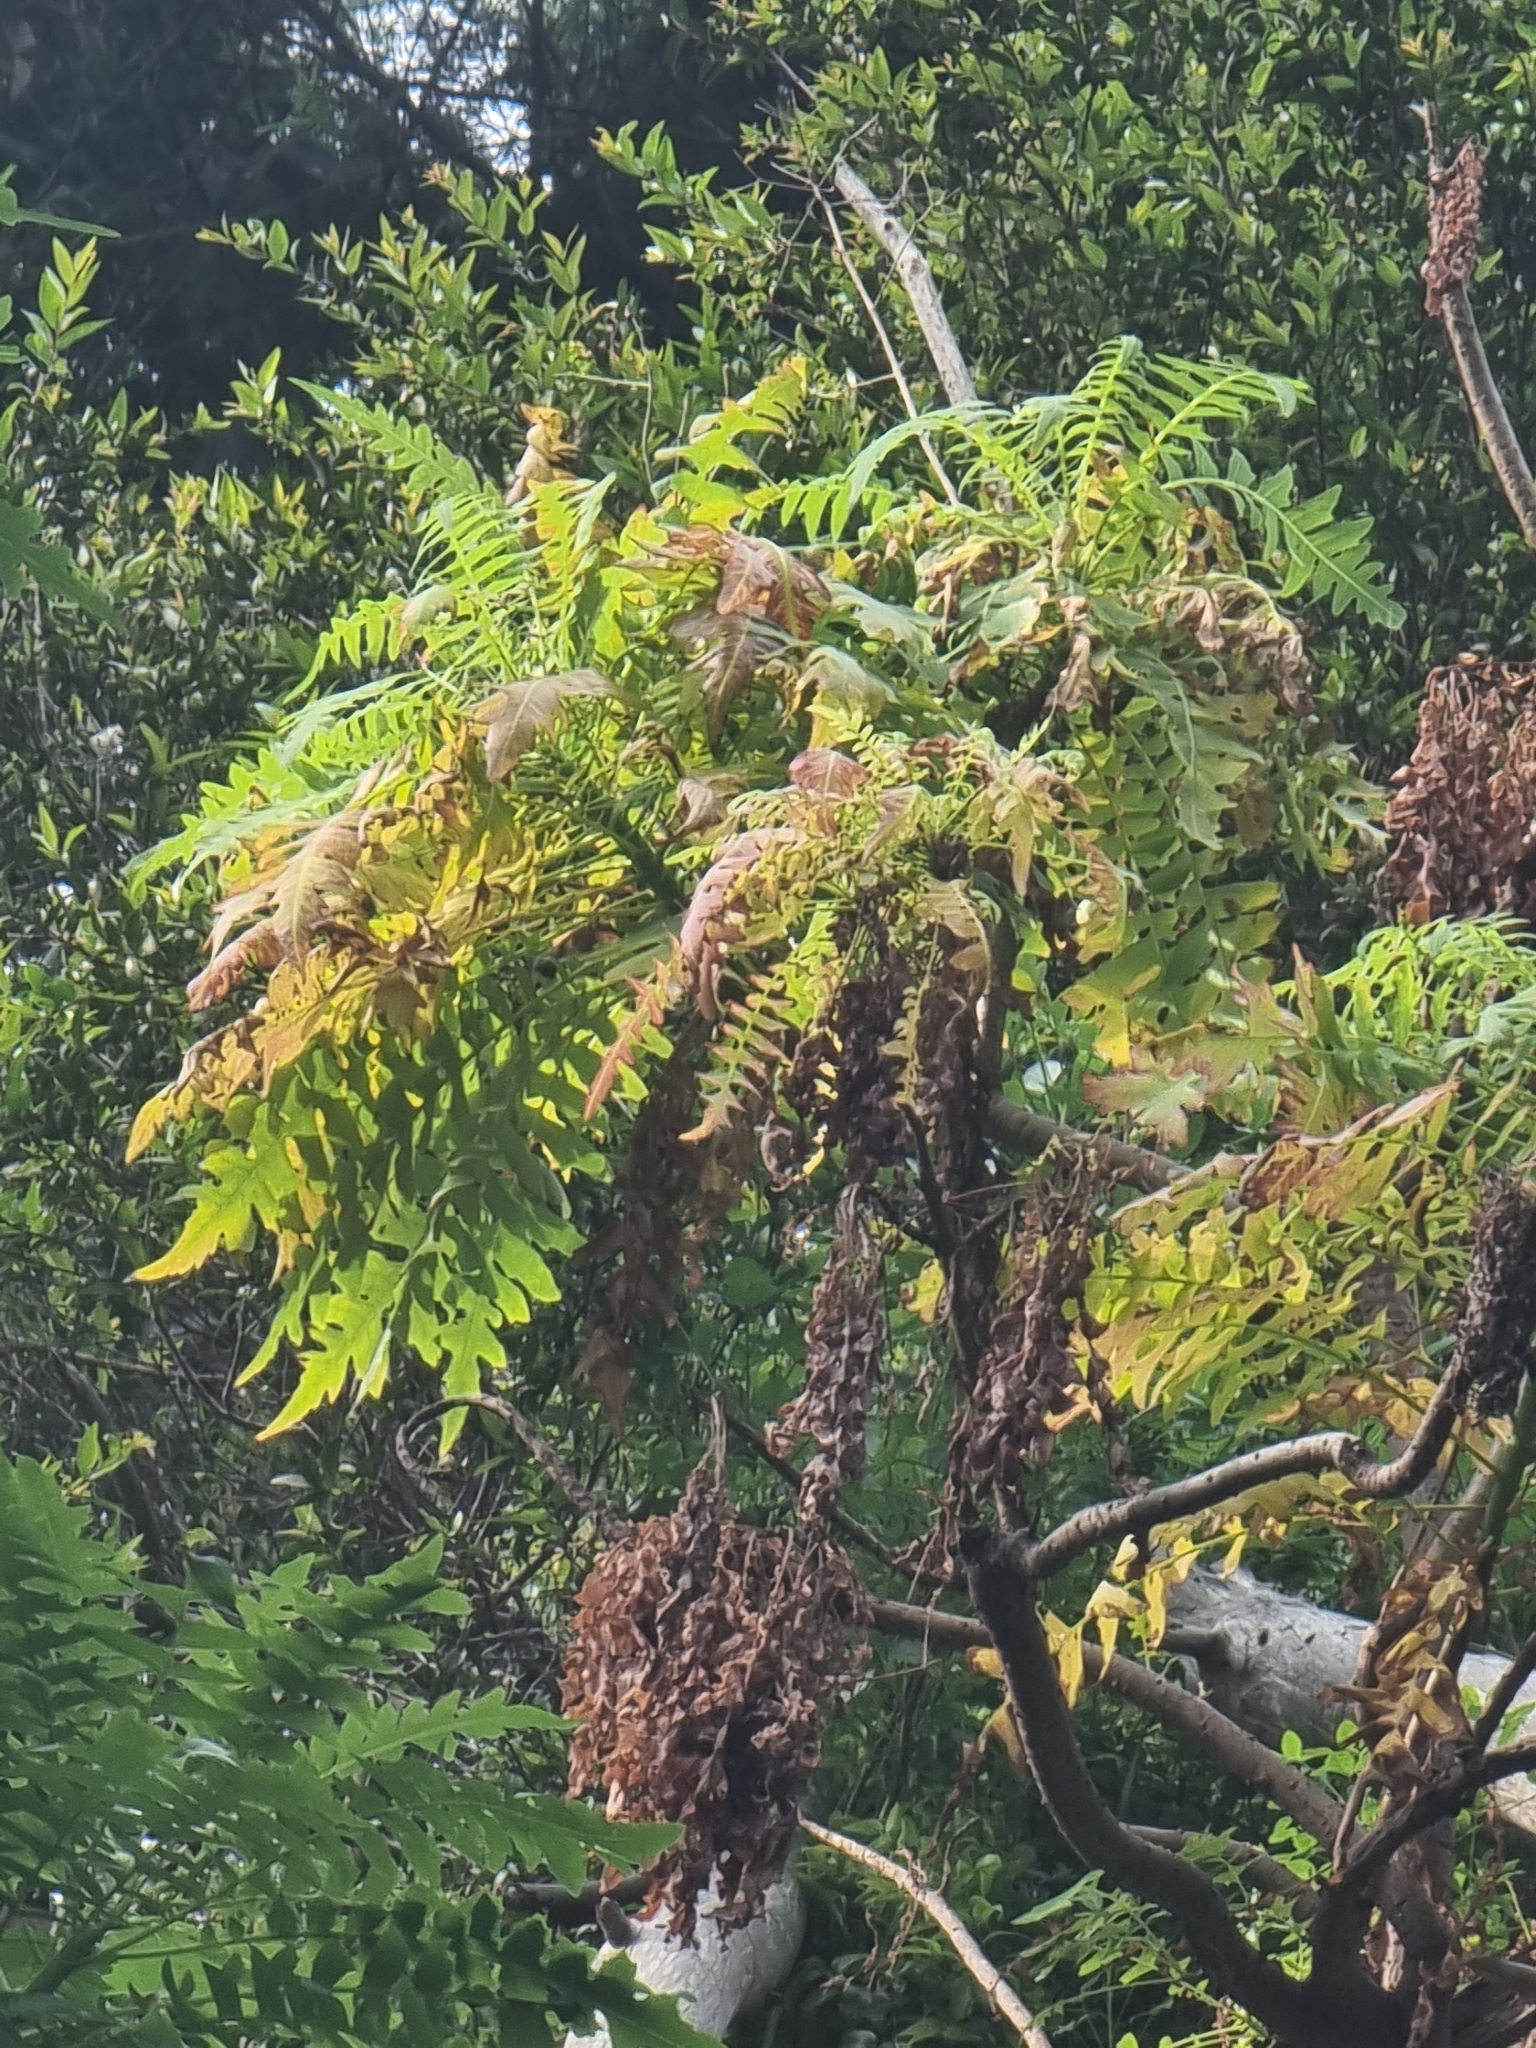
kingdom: Plantae
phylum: Tracheophyta
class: Magnoliopsida
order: Asterales
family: Asteraceae
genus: Sonchus
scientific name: Sonchus pinnatus
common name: Wing-leaved sow-thistle
